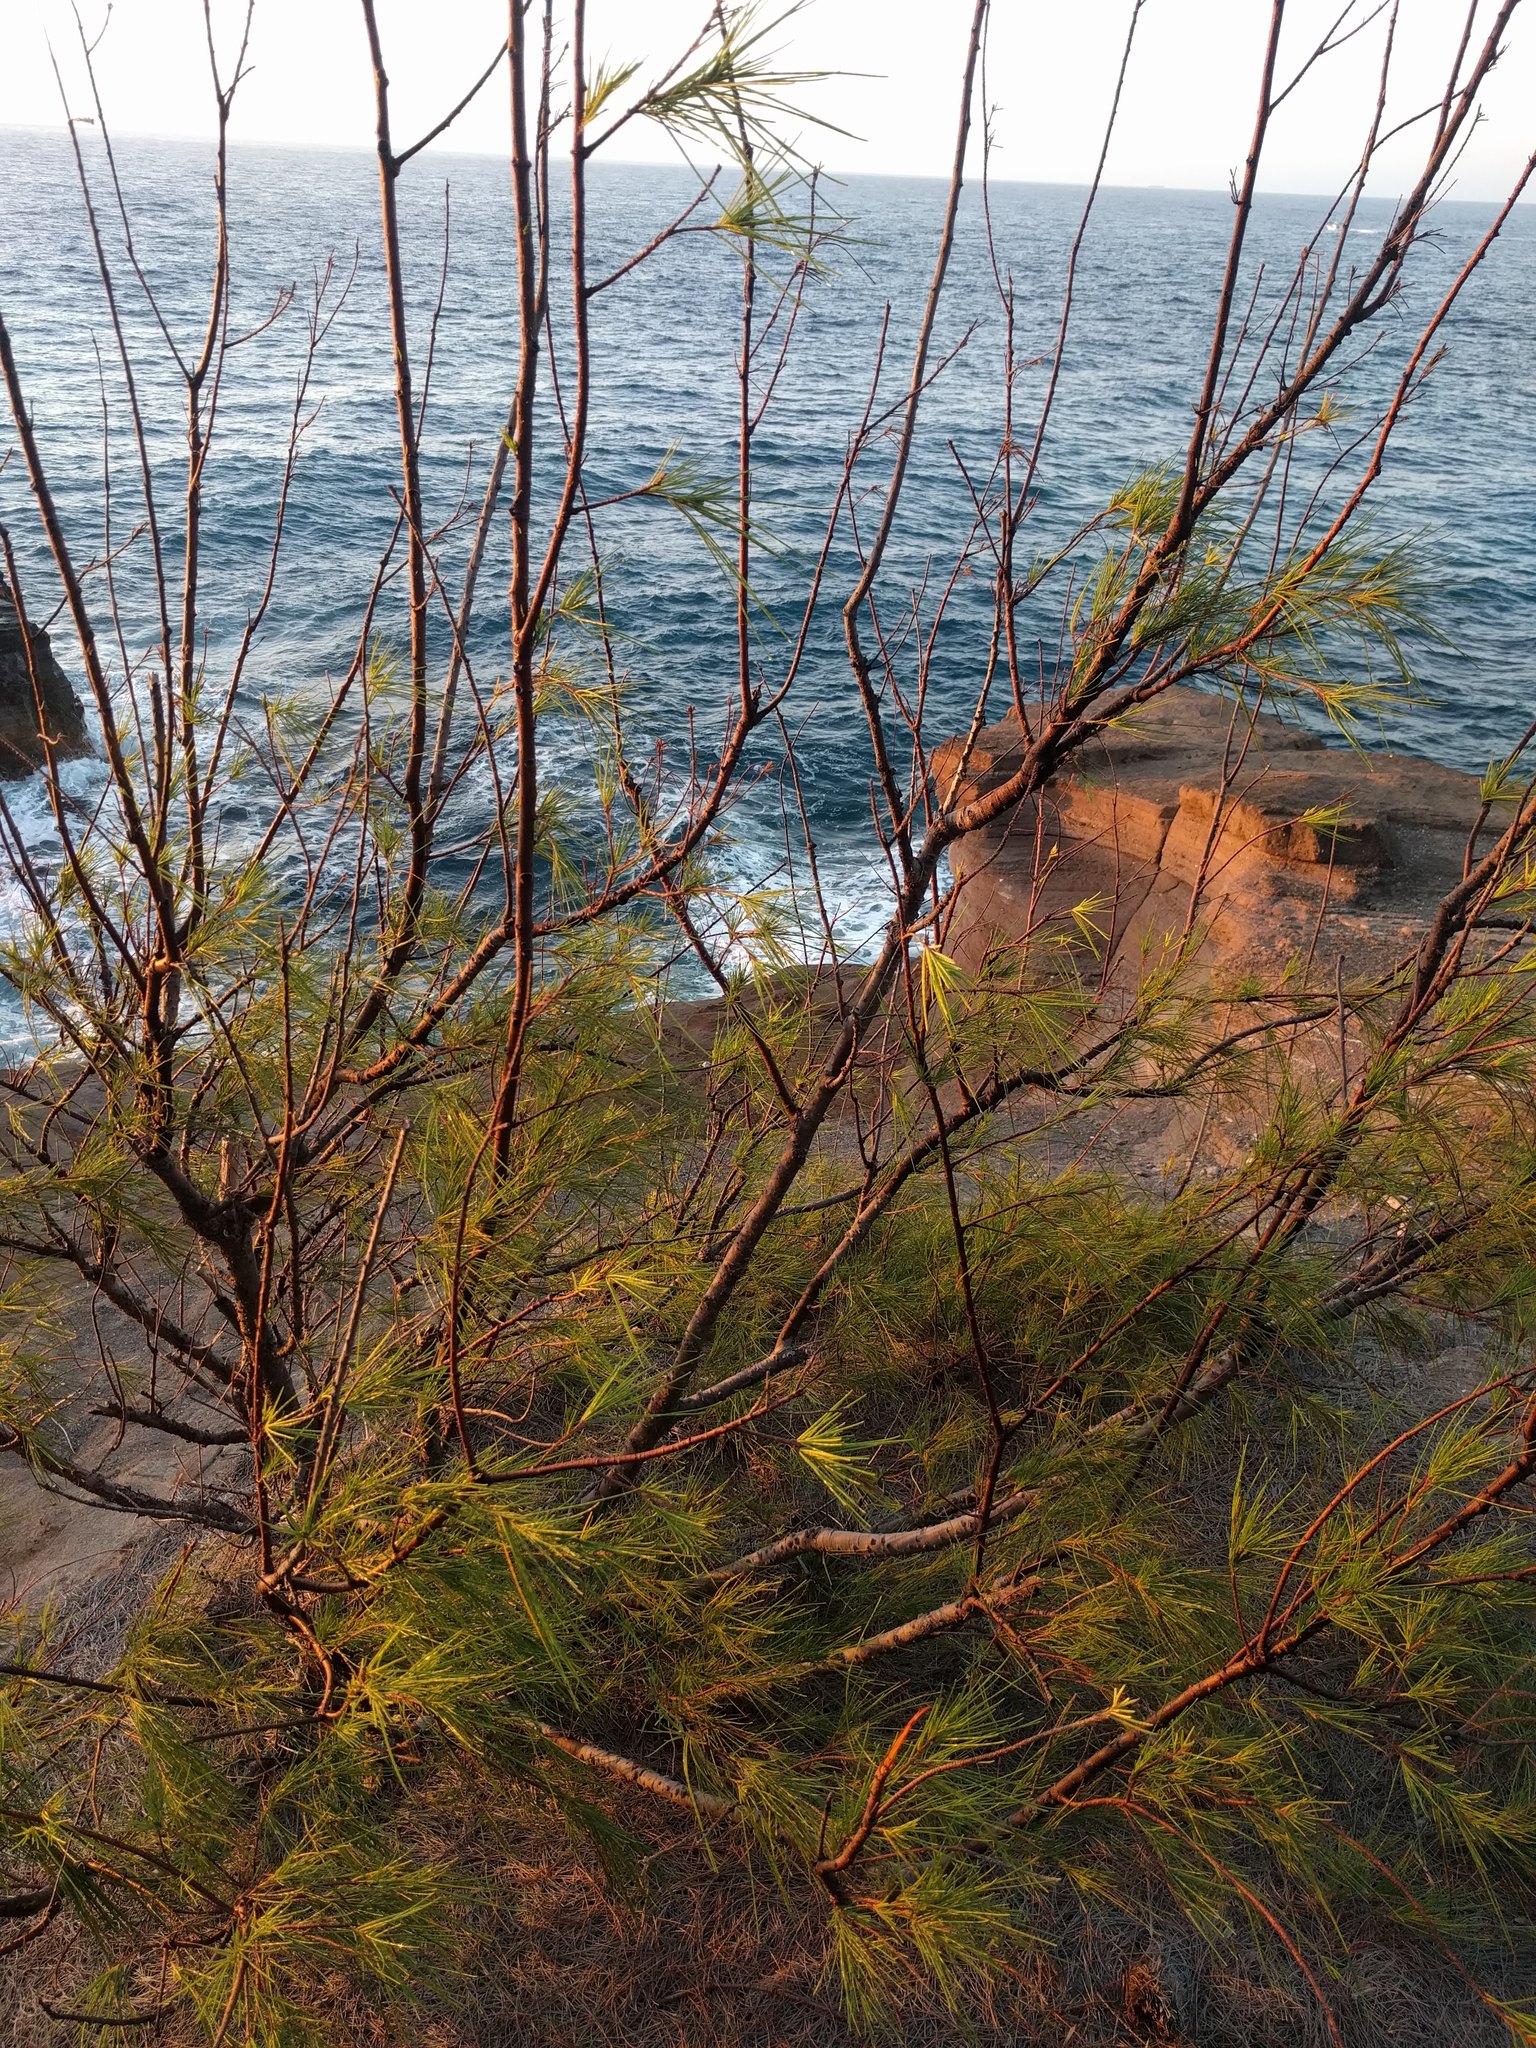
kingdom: Plantae
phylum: Tracheophyta
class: Magnoliopsida
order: Fagales
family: Casuarinaceae
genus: Casuarina
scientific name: Casuarina equisetifolia
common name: Beach sheoak
